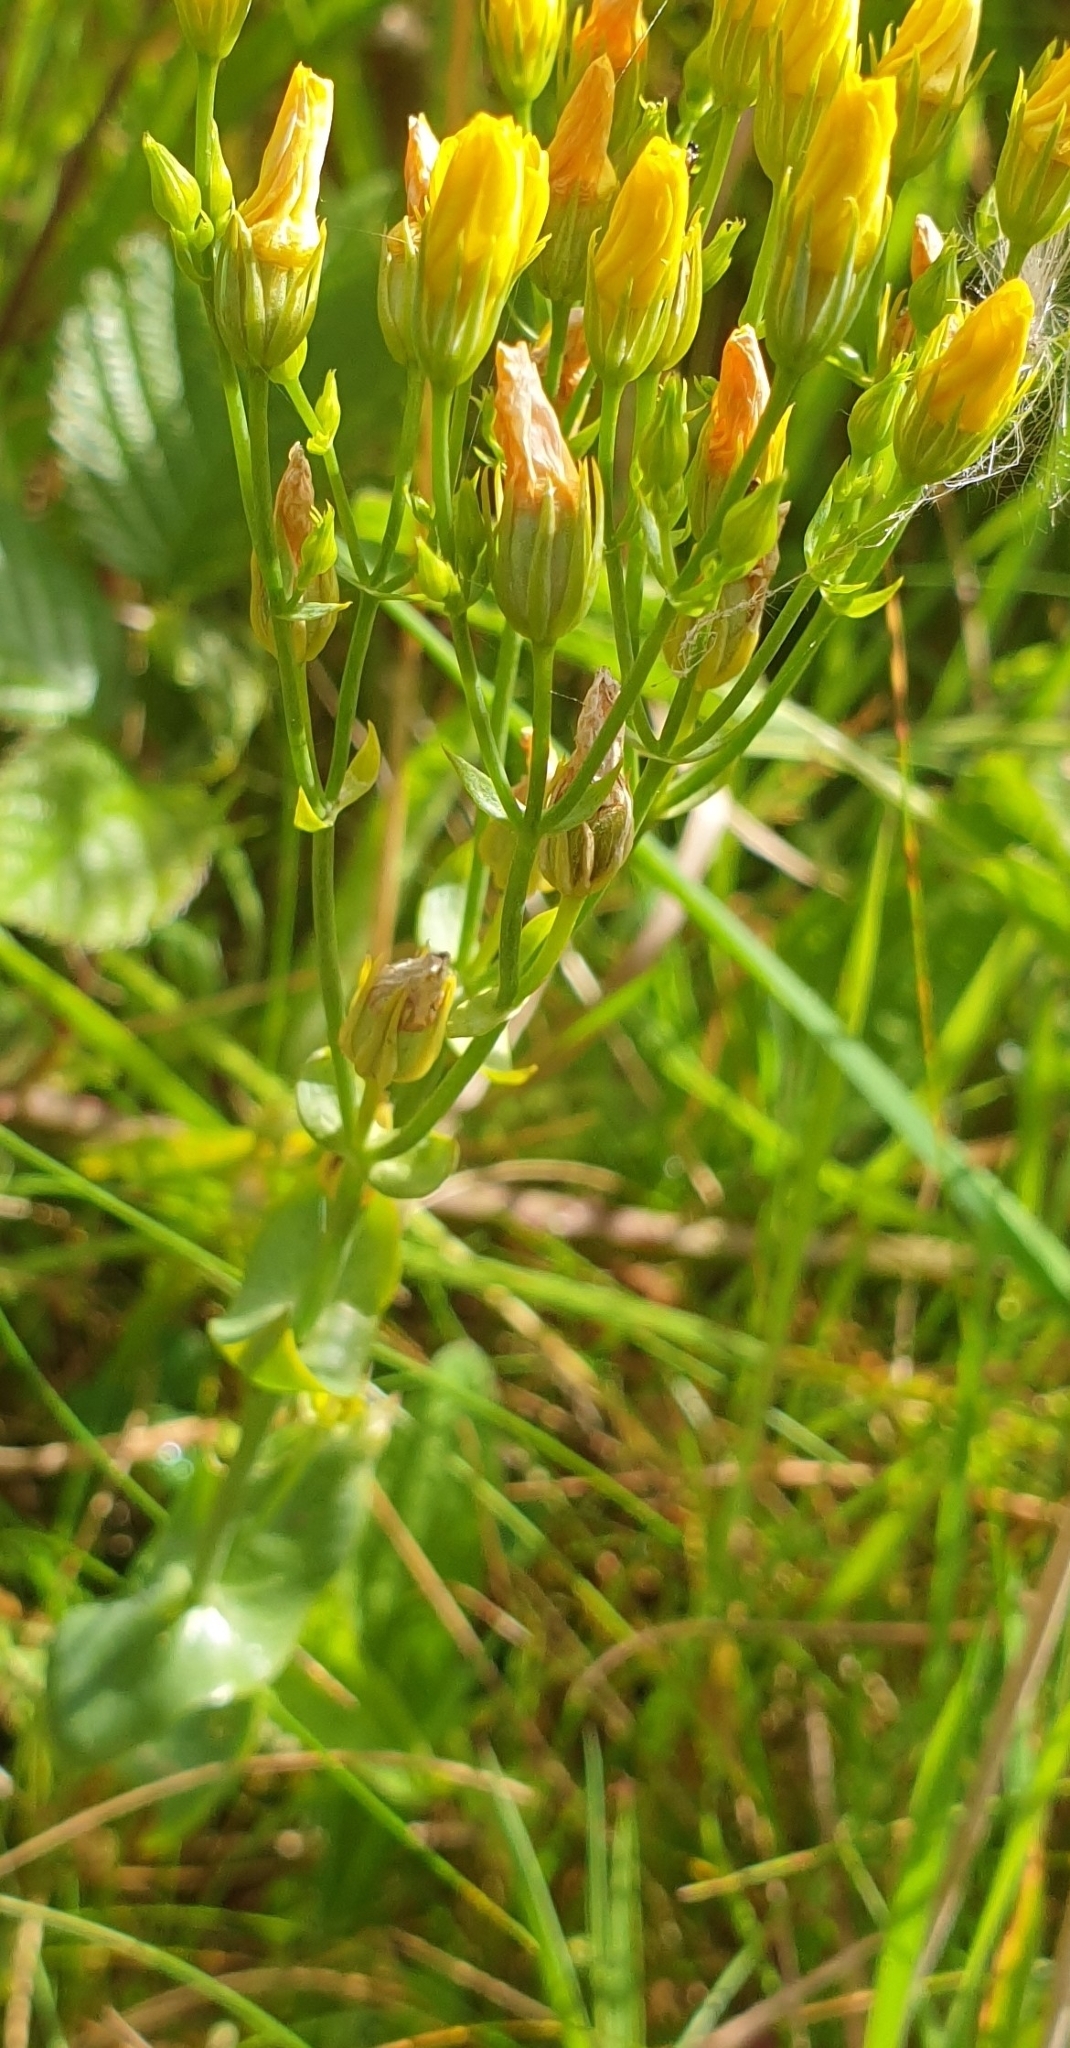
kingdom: Plantae
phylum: Tracheophyta
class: Magnoliopsida
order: Gentianales
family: Gentianaceae
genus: Blackstonia
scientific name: Blackstonia perfoliata
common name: Yellow-wort
